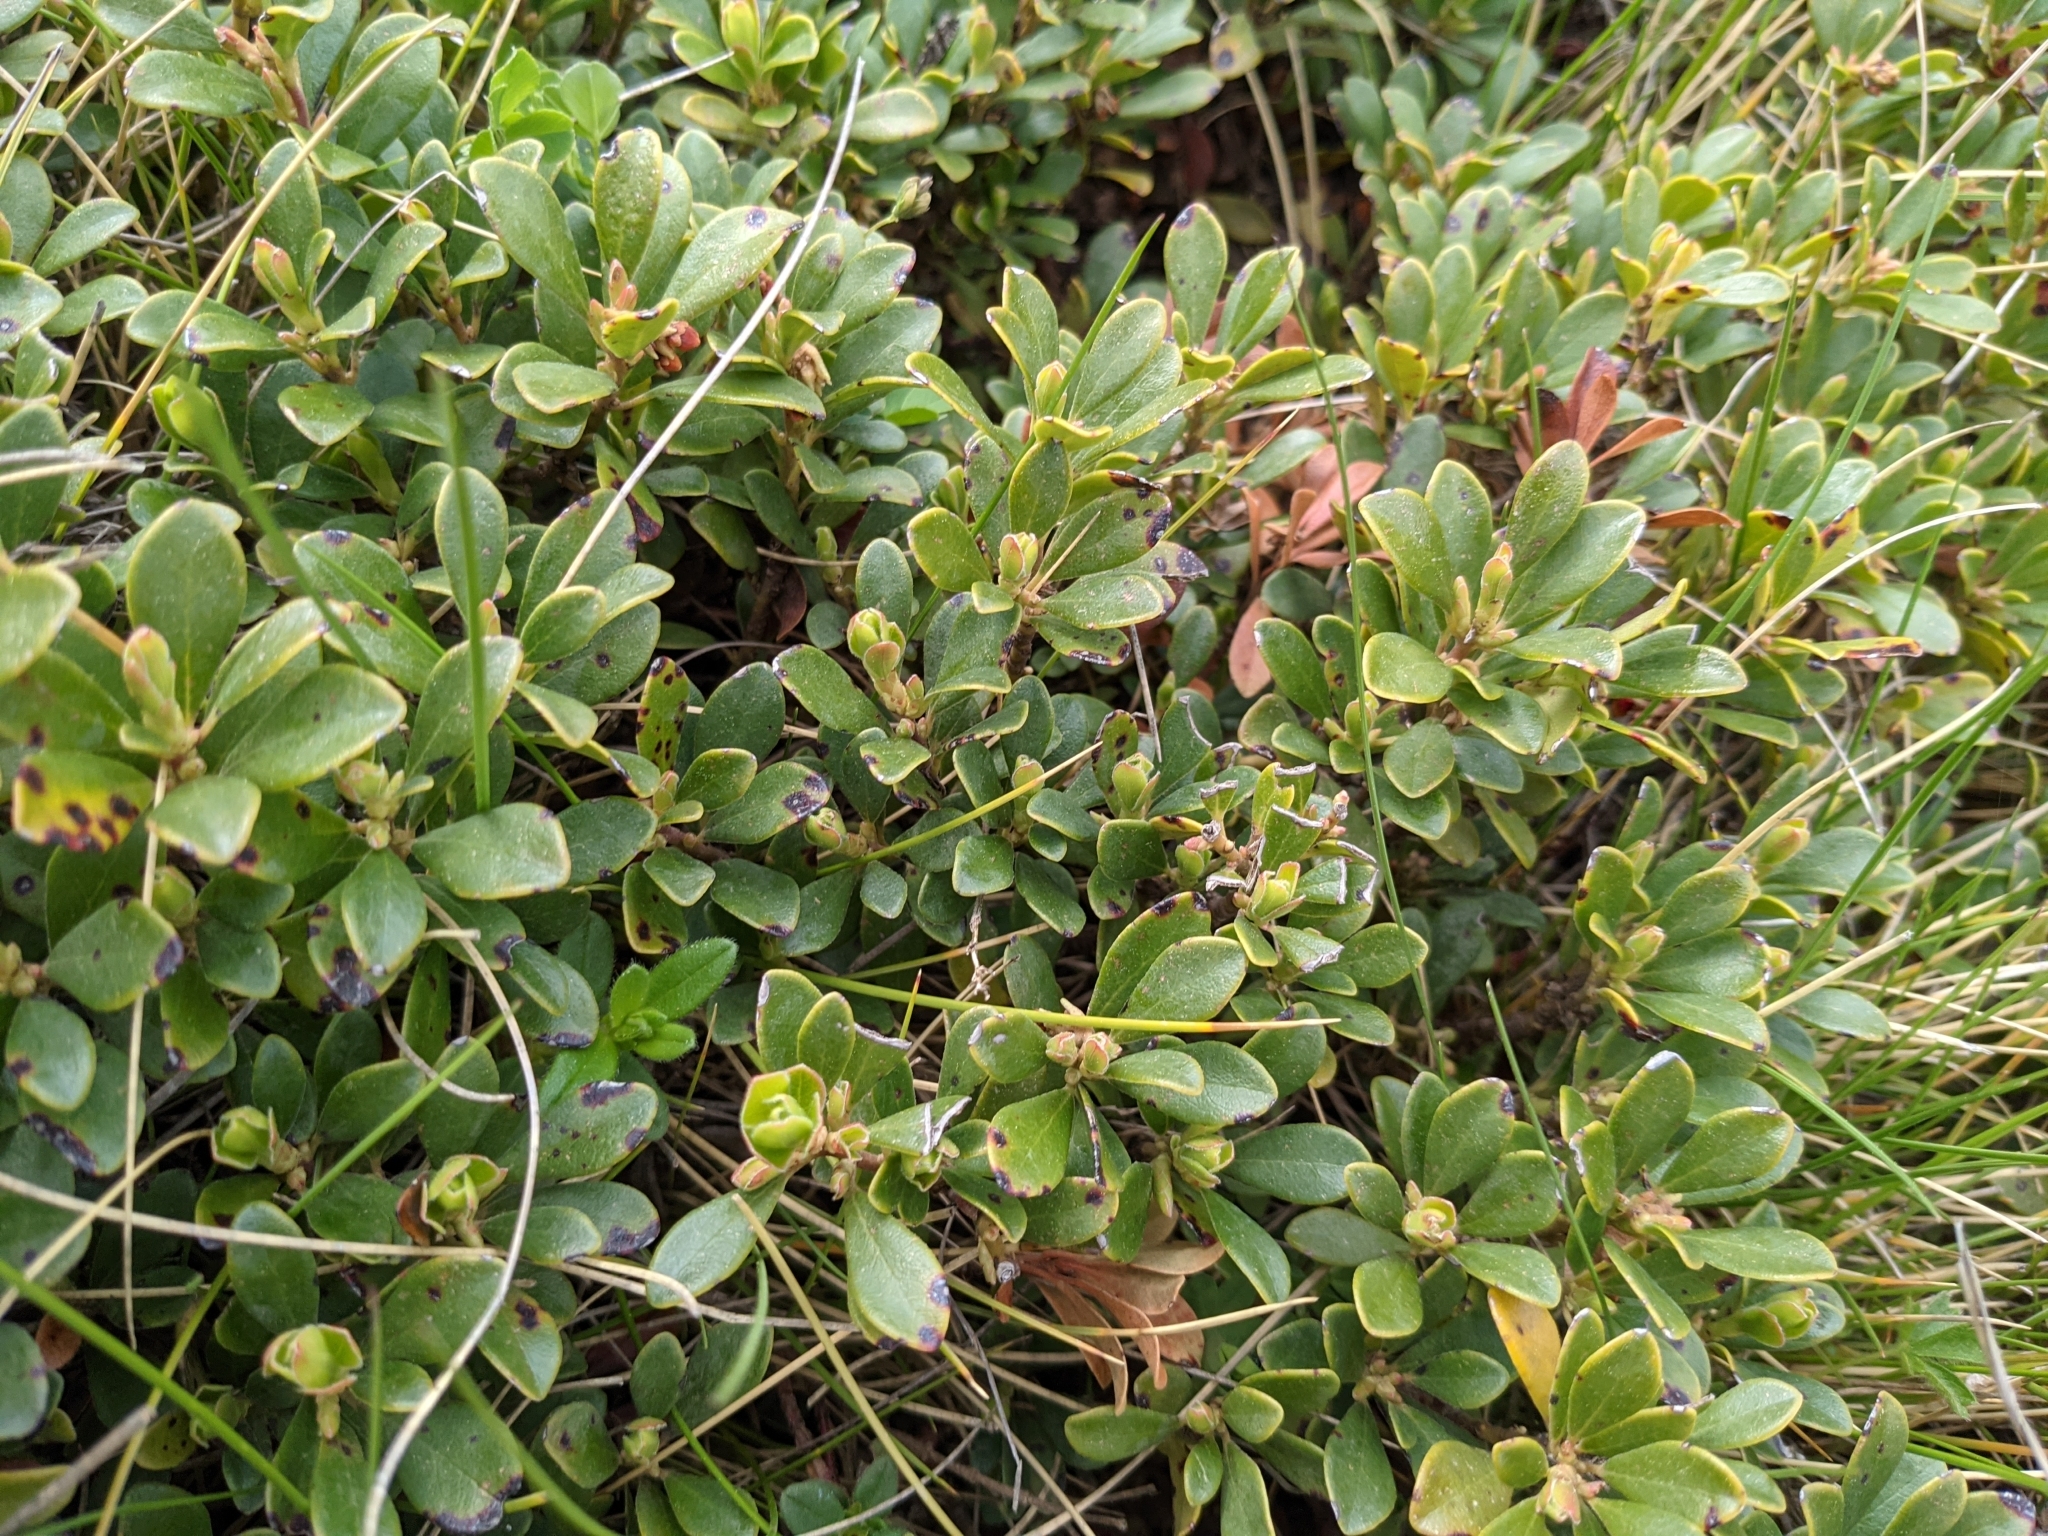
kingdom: Plantae
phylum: Tracheophyta
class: Magnoliopsida
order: Ericales
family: Ericaceae
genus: Arctostaphylos
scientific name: Arctostaphylos uva-ursi
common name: Bearberry
